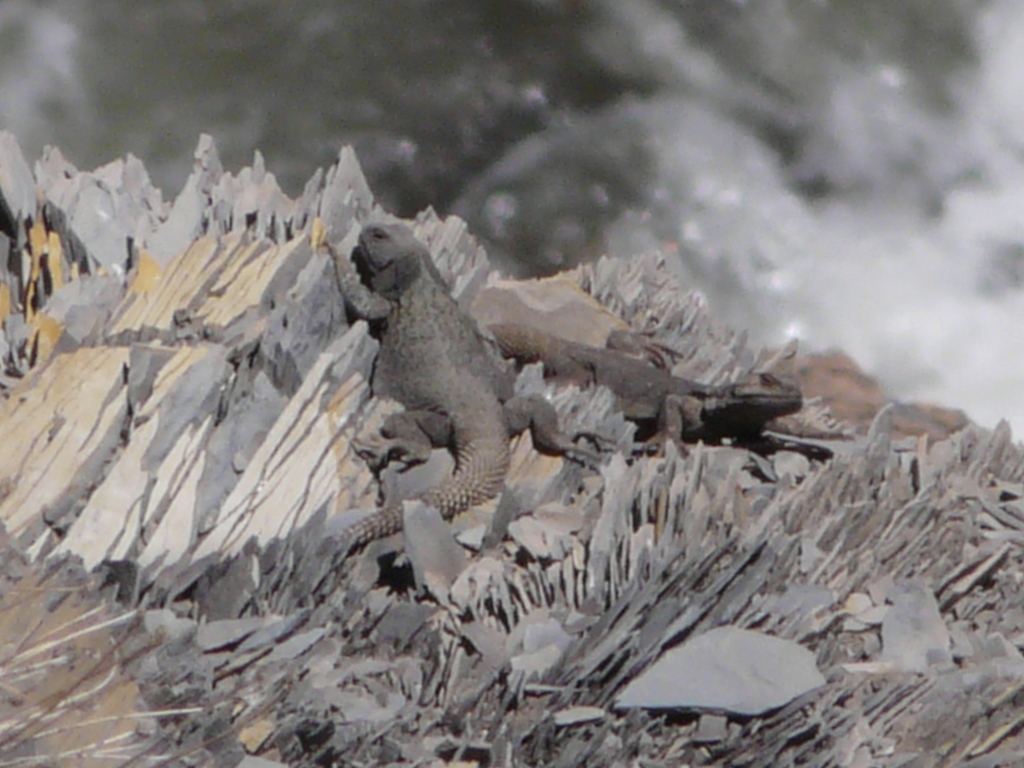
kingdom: Animalia
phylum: Chordata
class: Squamata
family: Liolaemidae
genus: Phymaturus
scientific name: Phymaturus verdugo
